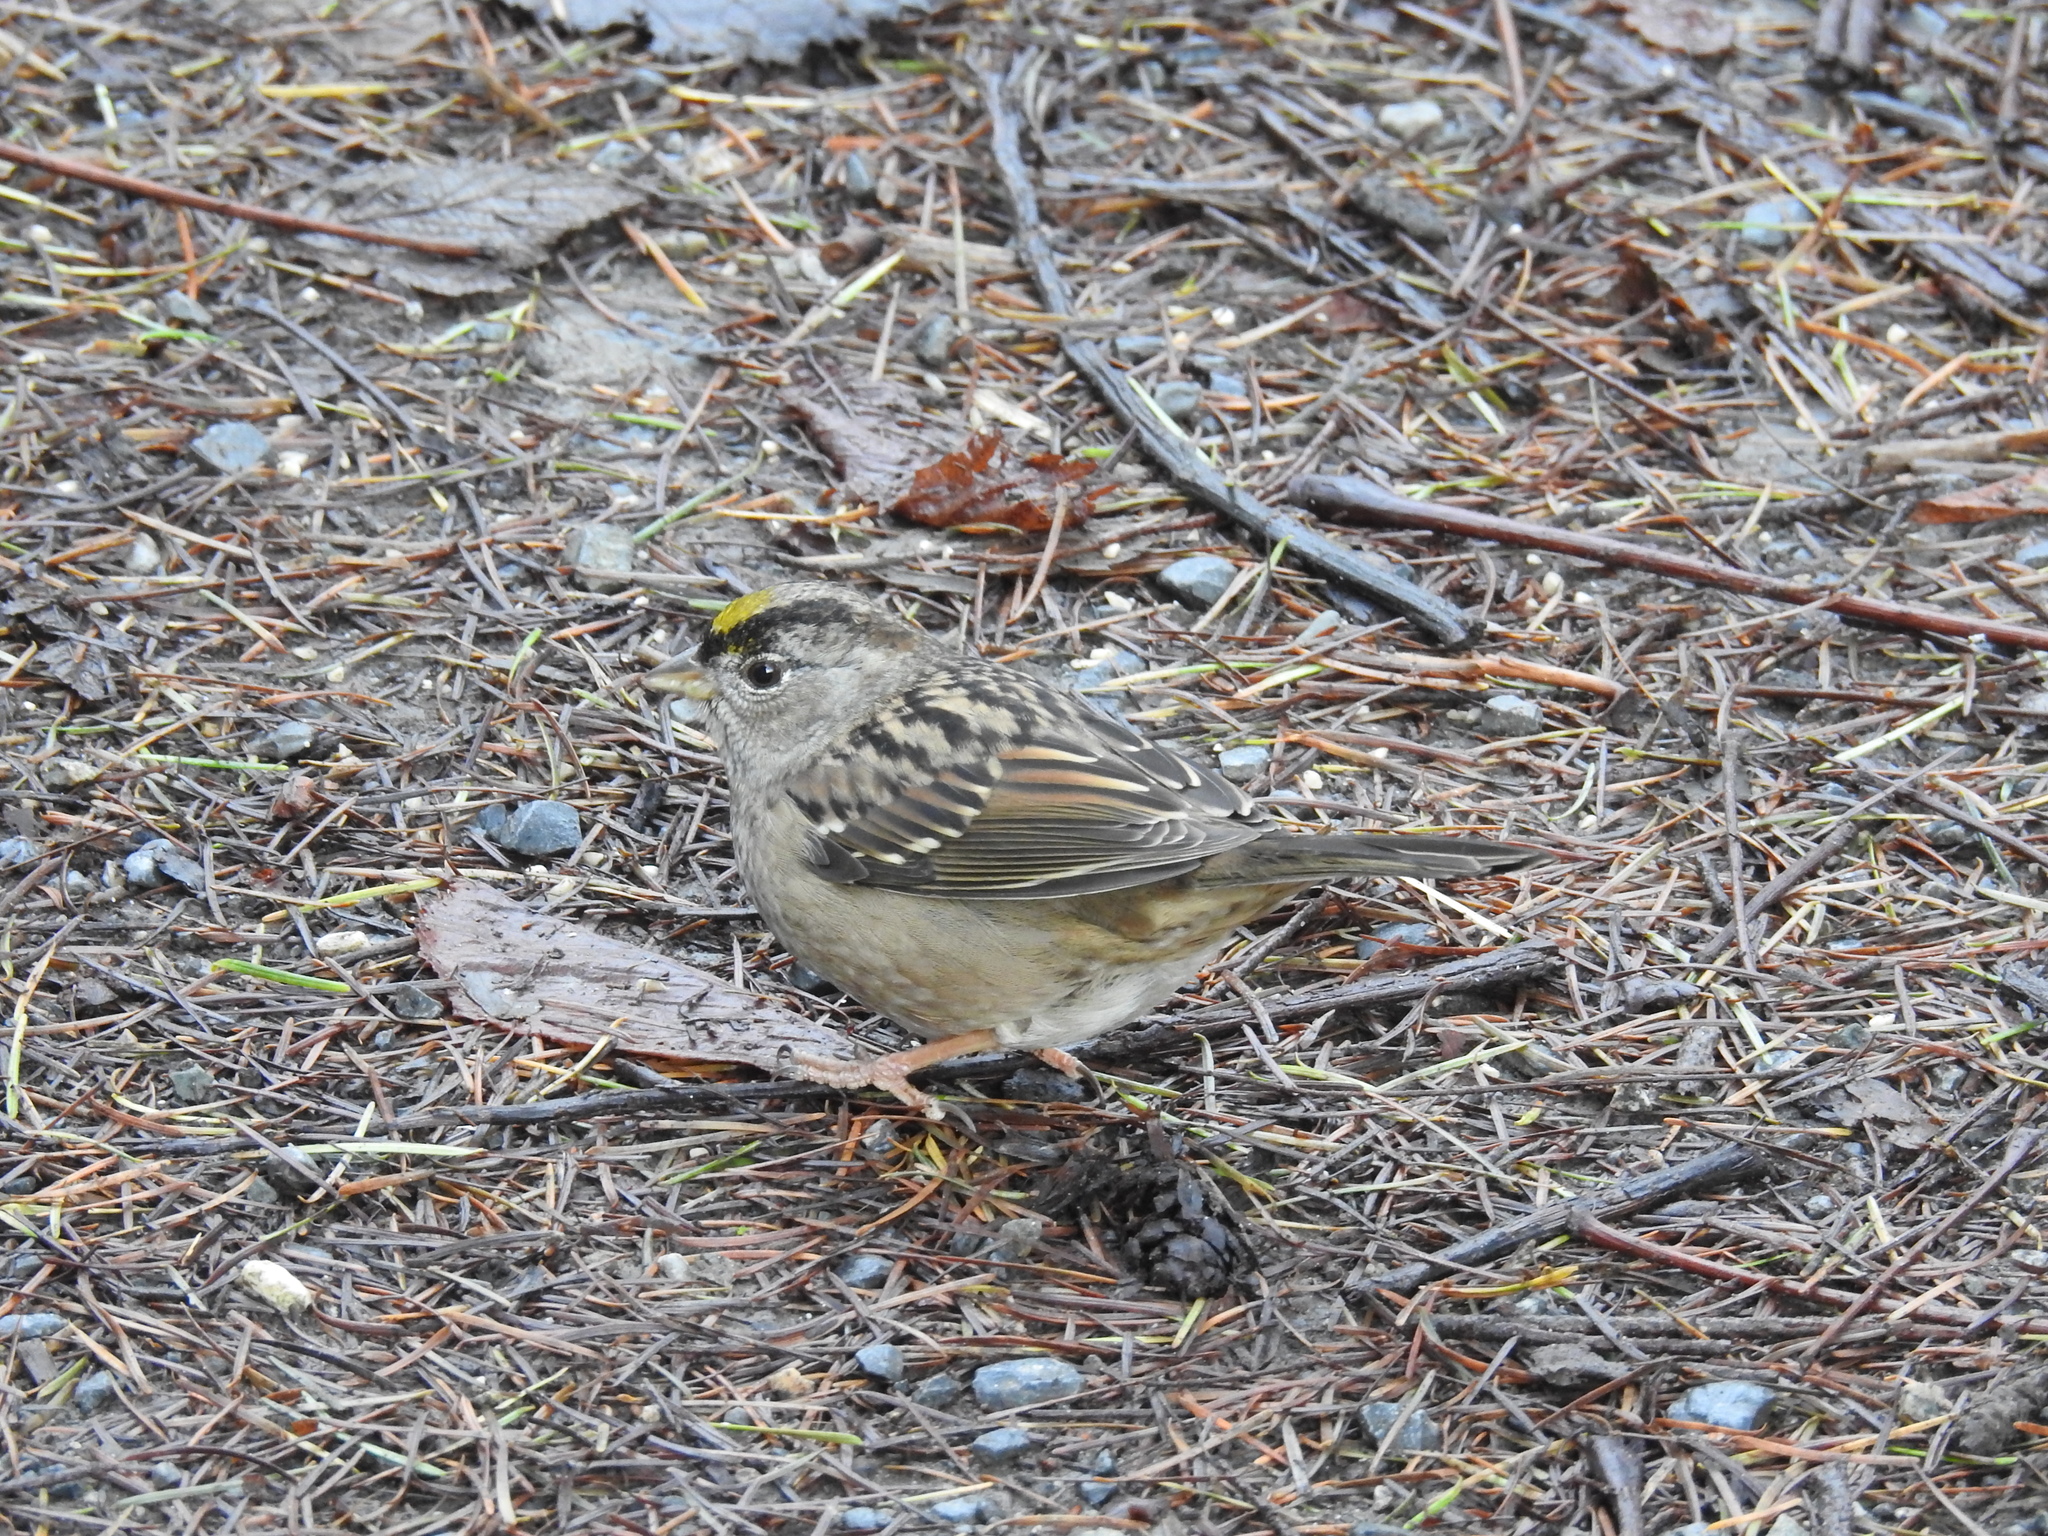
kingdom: Animalia
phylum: Chordata
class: Aves
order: Passeriformes
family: Passerellidae
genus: Zonotrichia
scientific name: Zonotrichia atricapilla
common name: Golden-crowned sparrow
